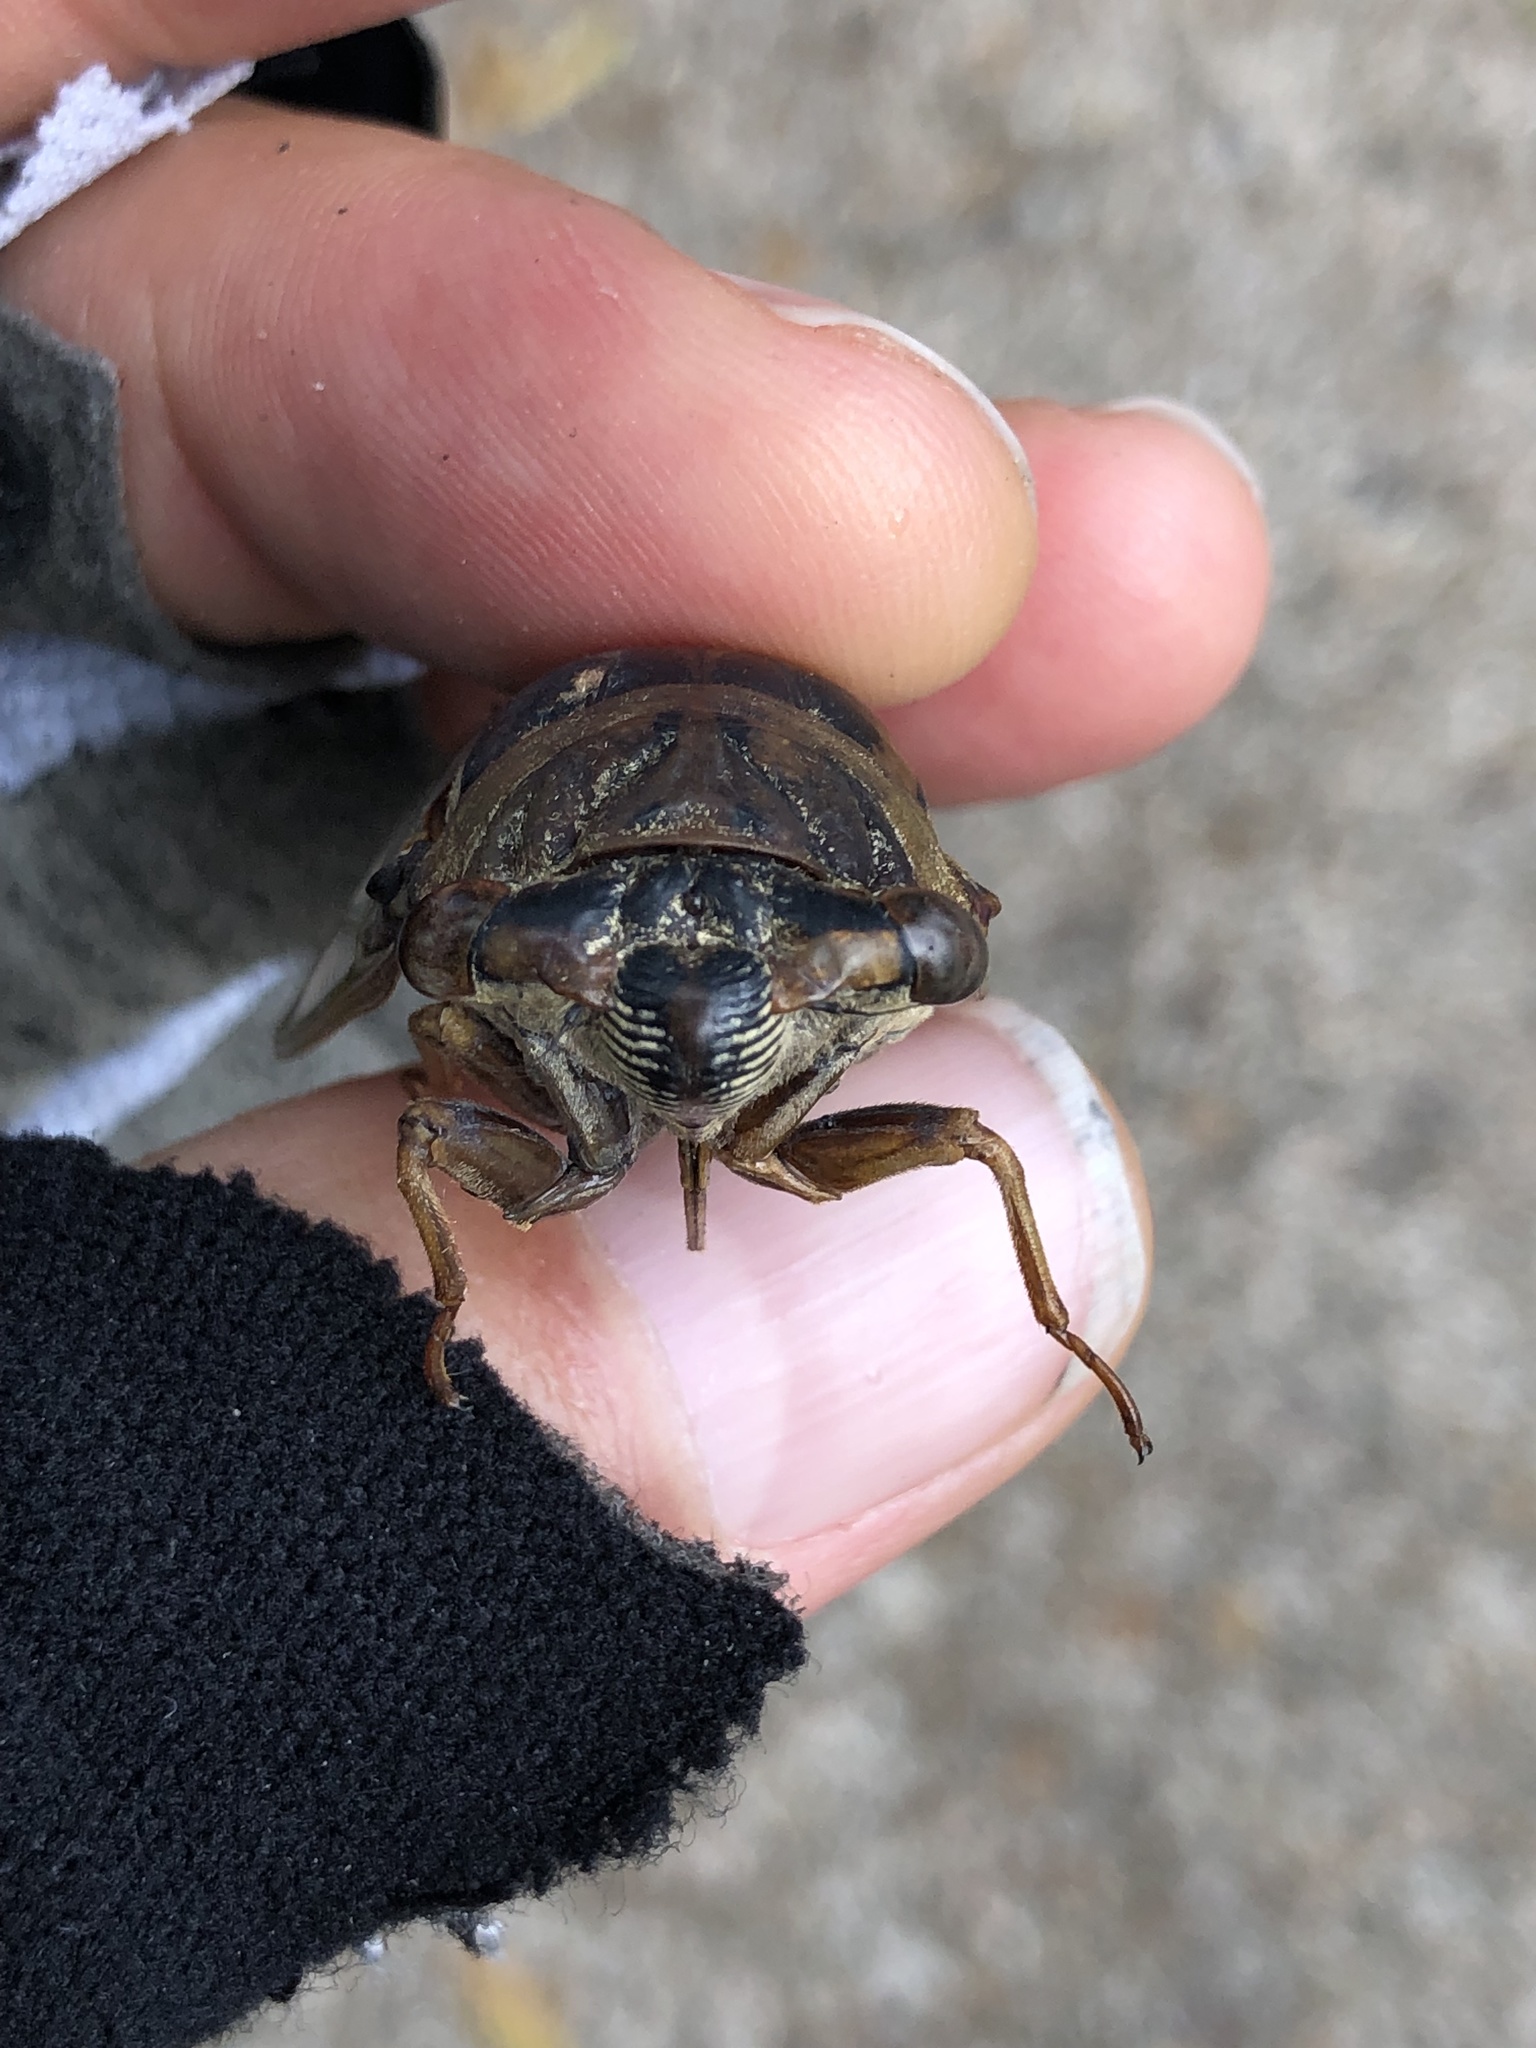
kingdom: Animalia
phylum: Arthropoda
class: Insecta
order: Hemiptera
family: Cicadidae
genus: Megatibicen
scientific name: Megatibicen resh
